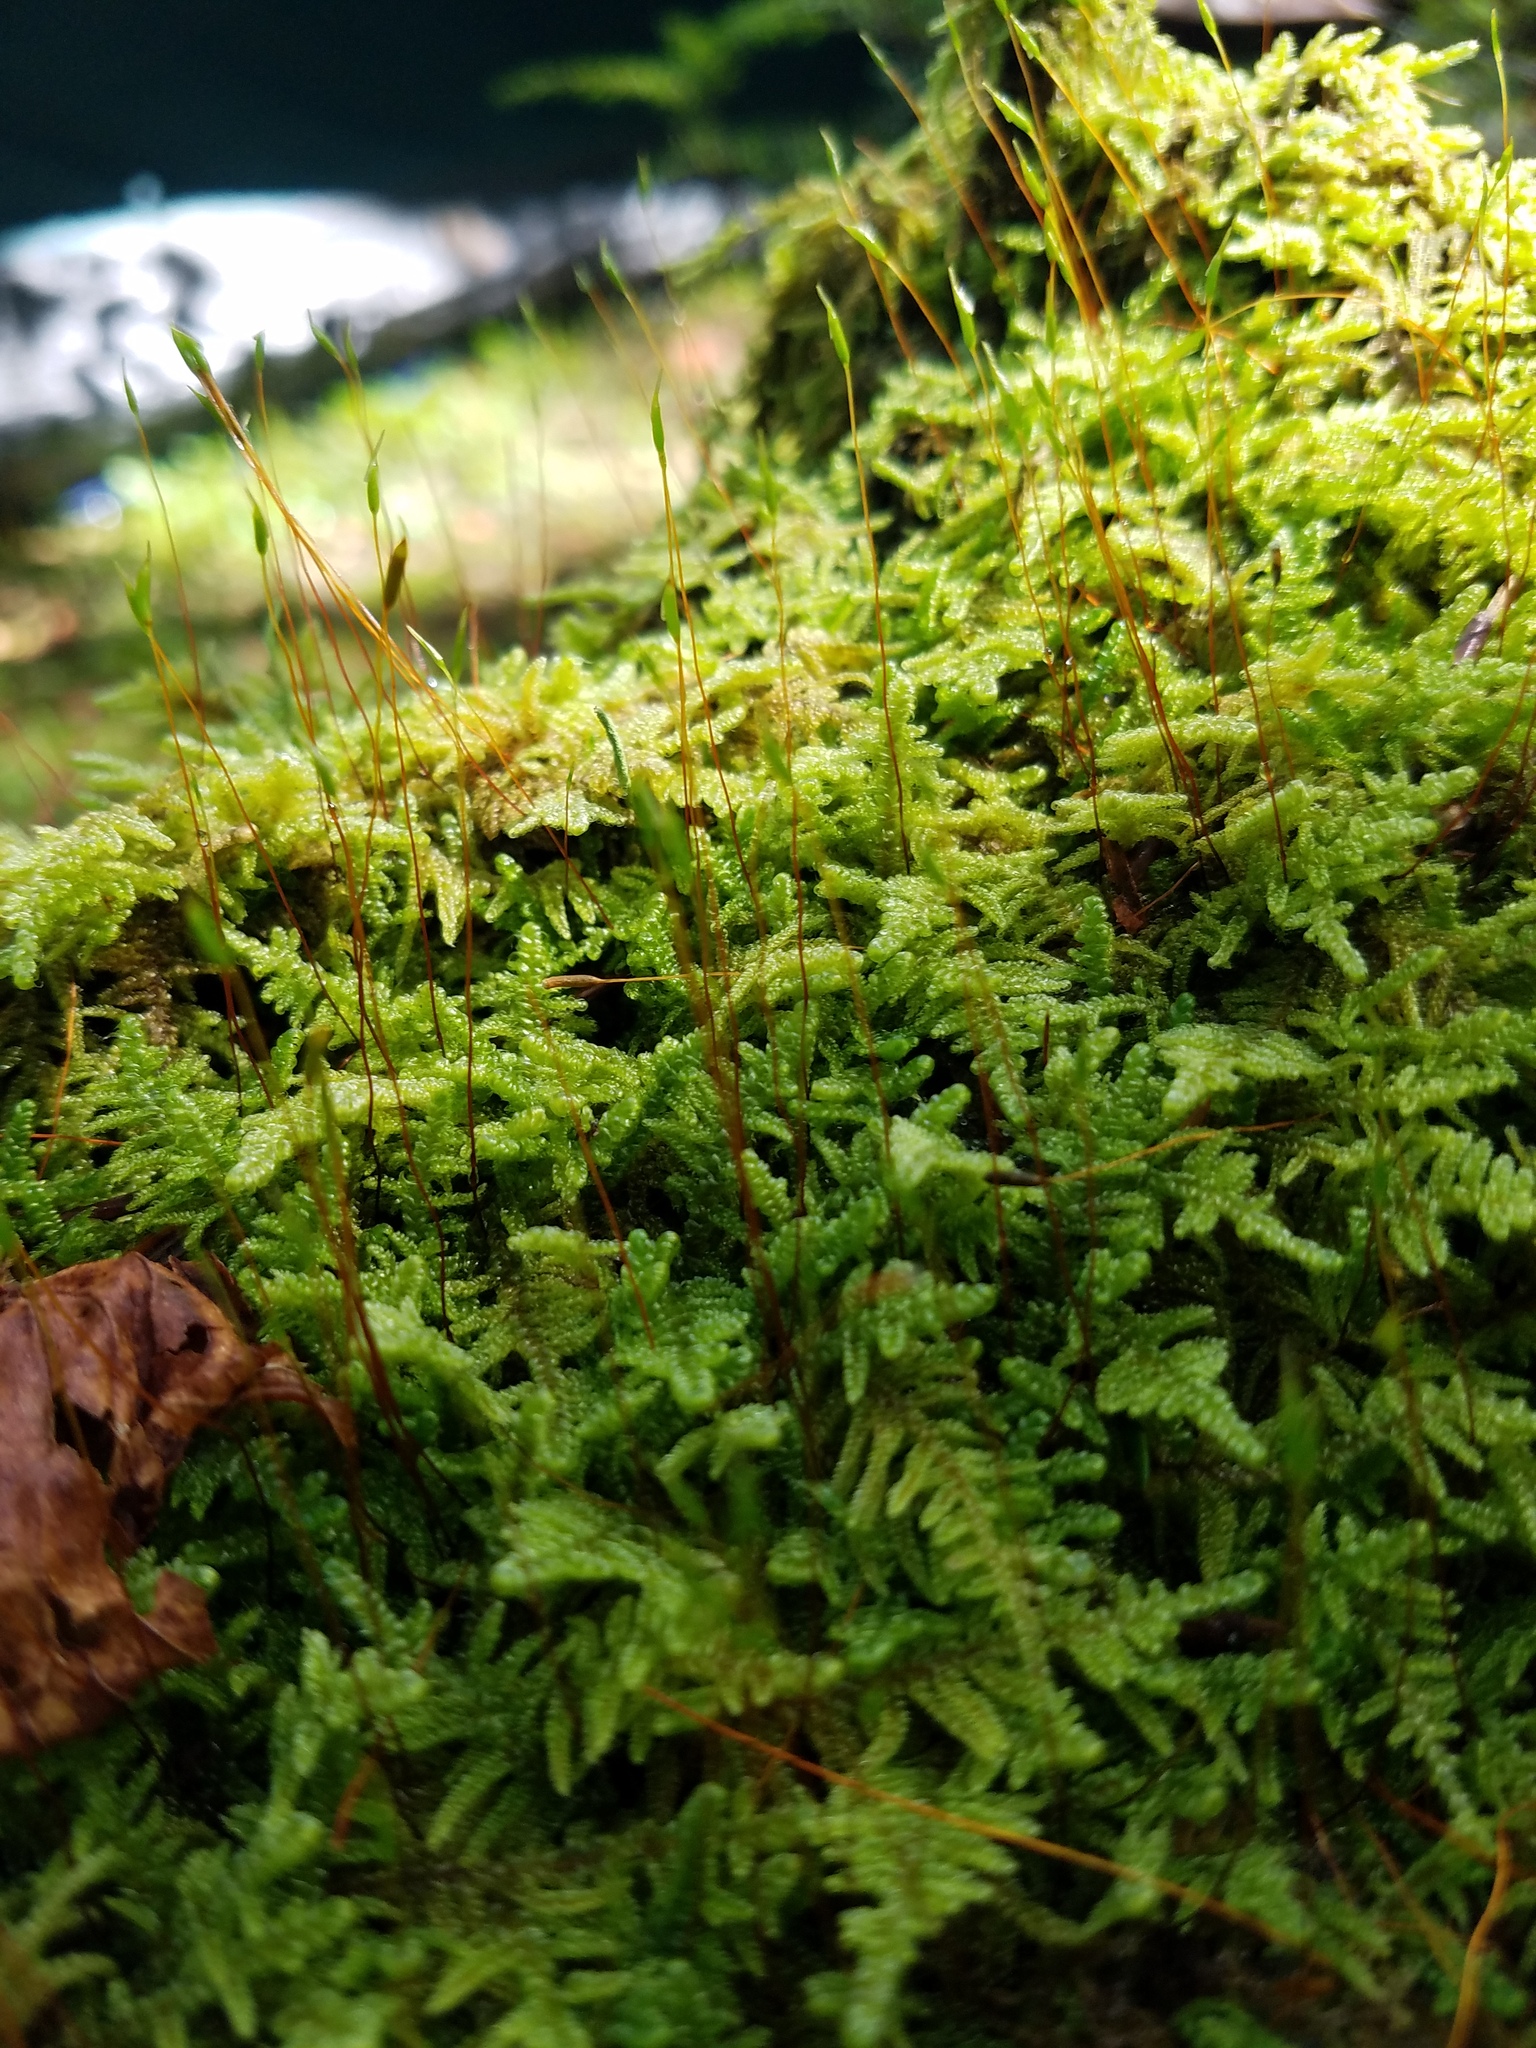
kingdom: Plantae
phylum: Bryophyta
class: Bryopsida
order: Hypnales
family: Callicladiaceae
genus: Callicladium
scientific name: Callicladium imponens
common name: Brocade moss
